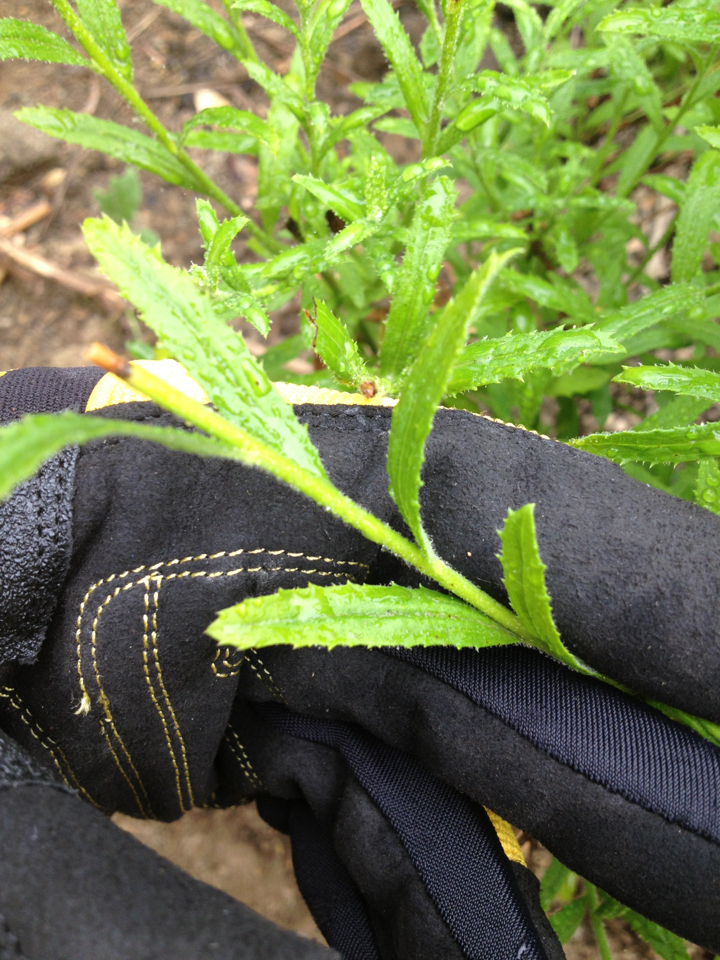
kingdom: Plantae
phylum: Tracheophyta
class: Magnoliopsida
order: Asterales
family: Asteraceae
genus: Baccharis
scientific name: Baccharis plummerae
